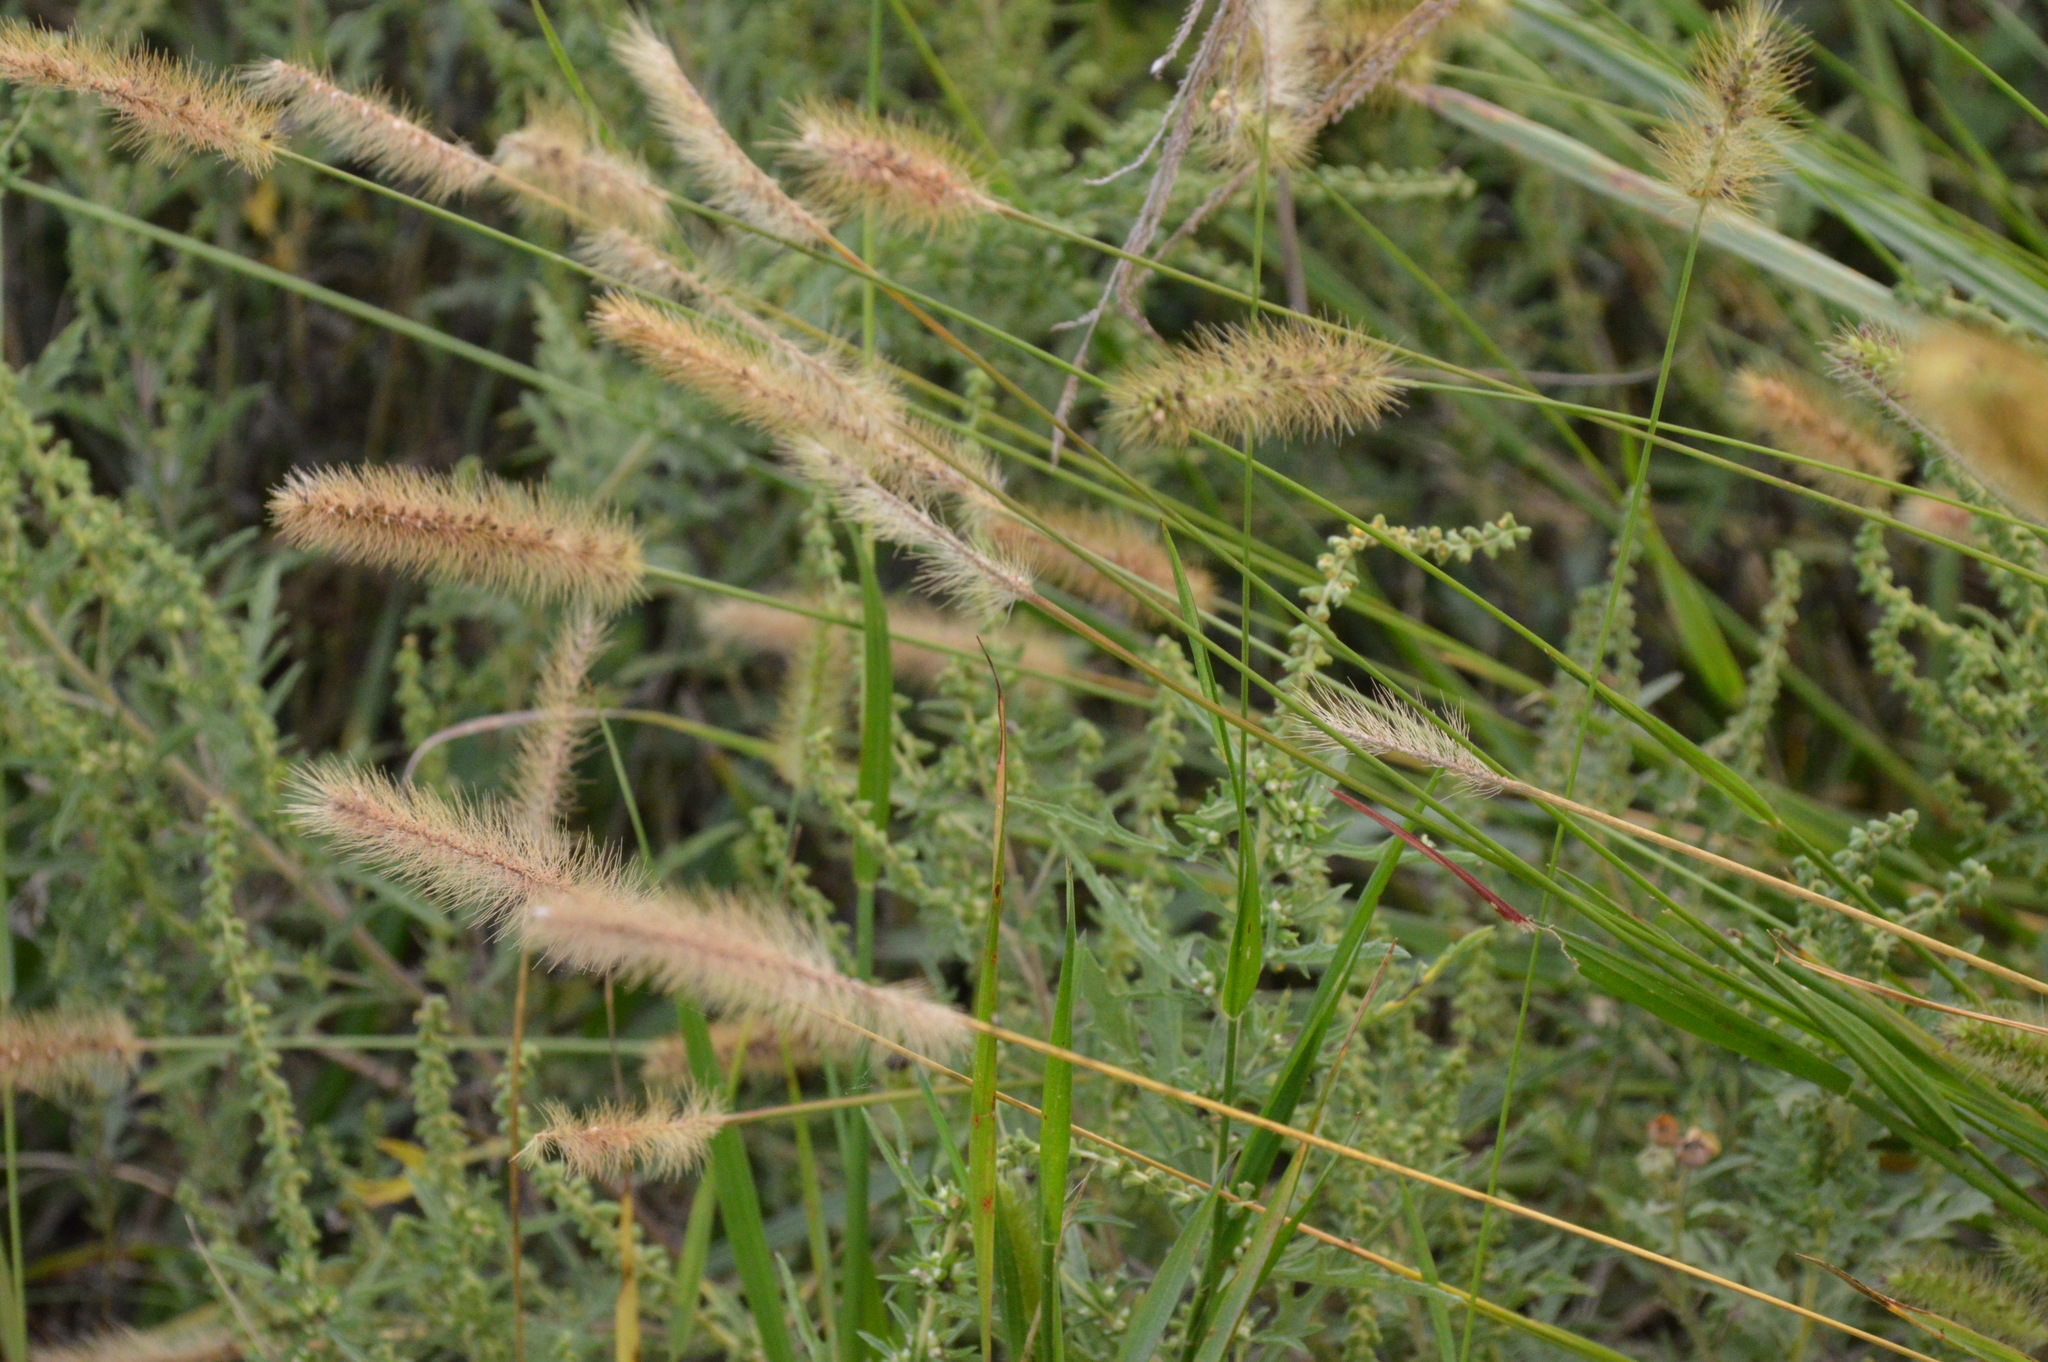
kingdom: Plantae
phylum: Tracheophyta
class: Liliopsida
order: Poales
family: Poaceae
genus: Setaria
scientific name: Setaria parviflora
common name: Knotroot bristle-grass
